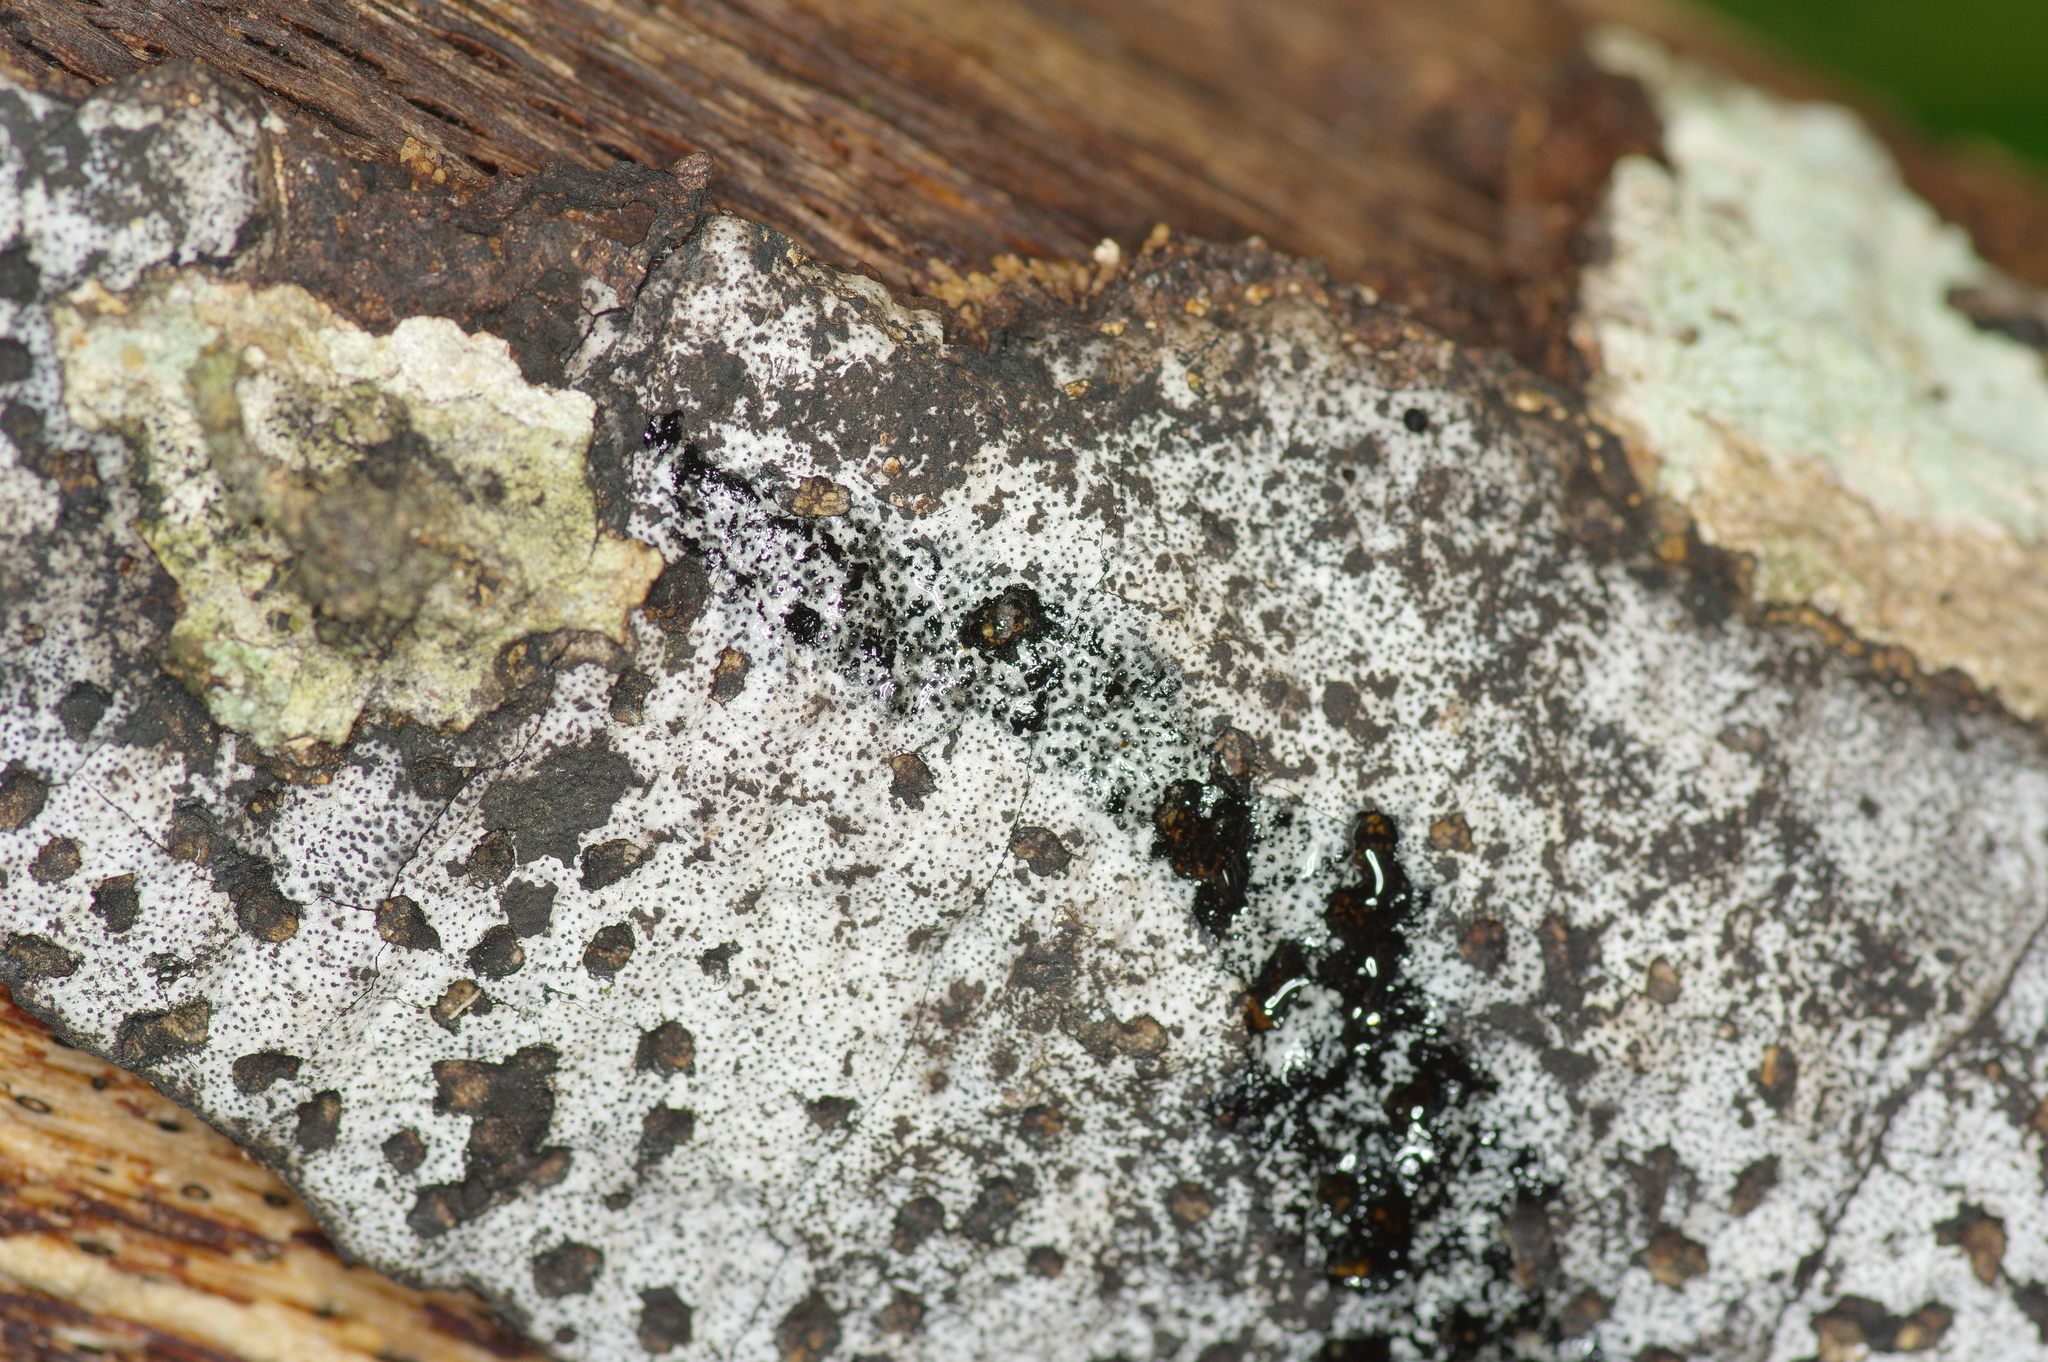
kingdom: Fungi
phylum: Ascomycota
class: Sordariomycetes
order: Xylariales
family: Graphostromataceae
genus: Biscogniauxia
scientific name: Biscogniauxia atropunctata
